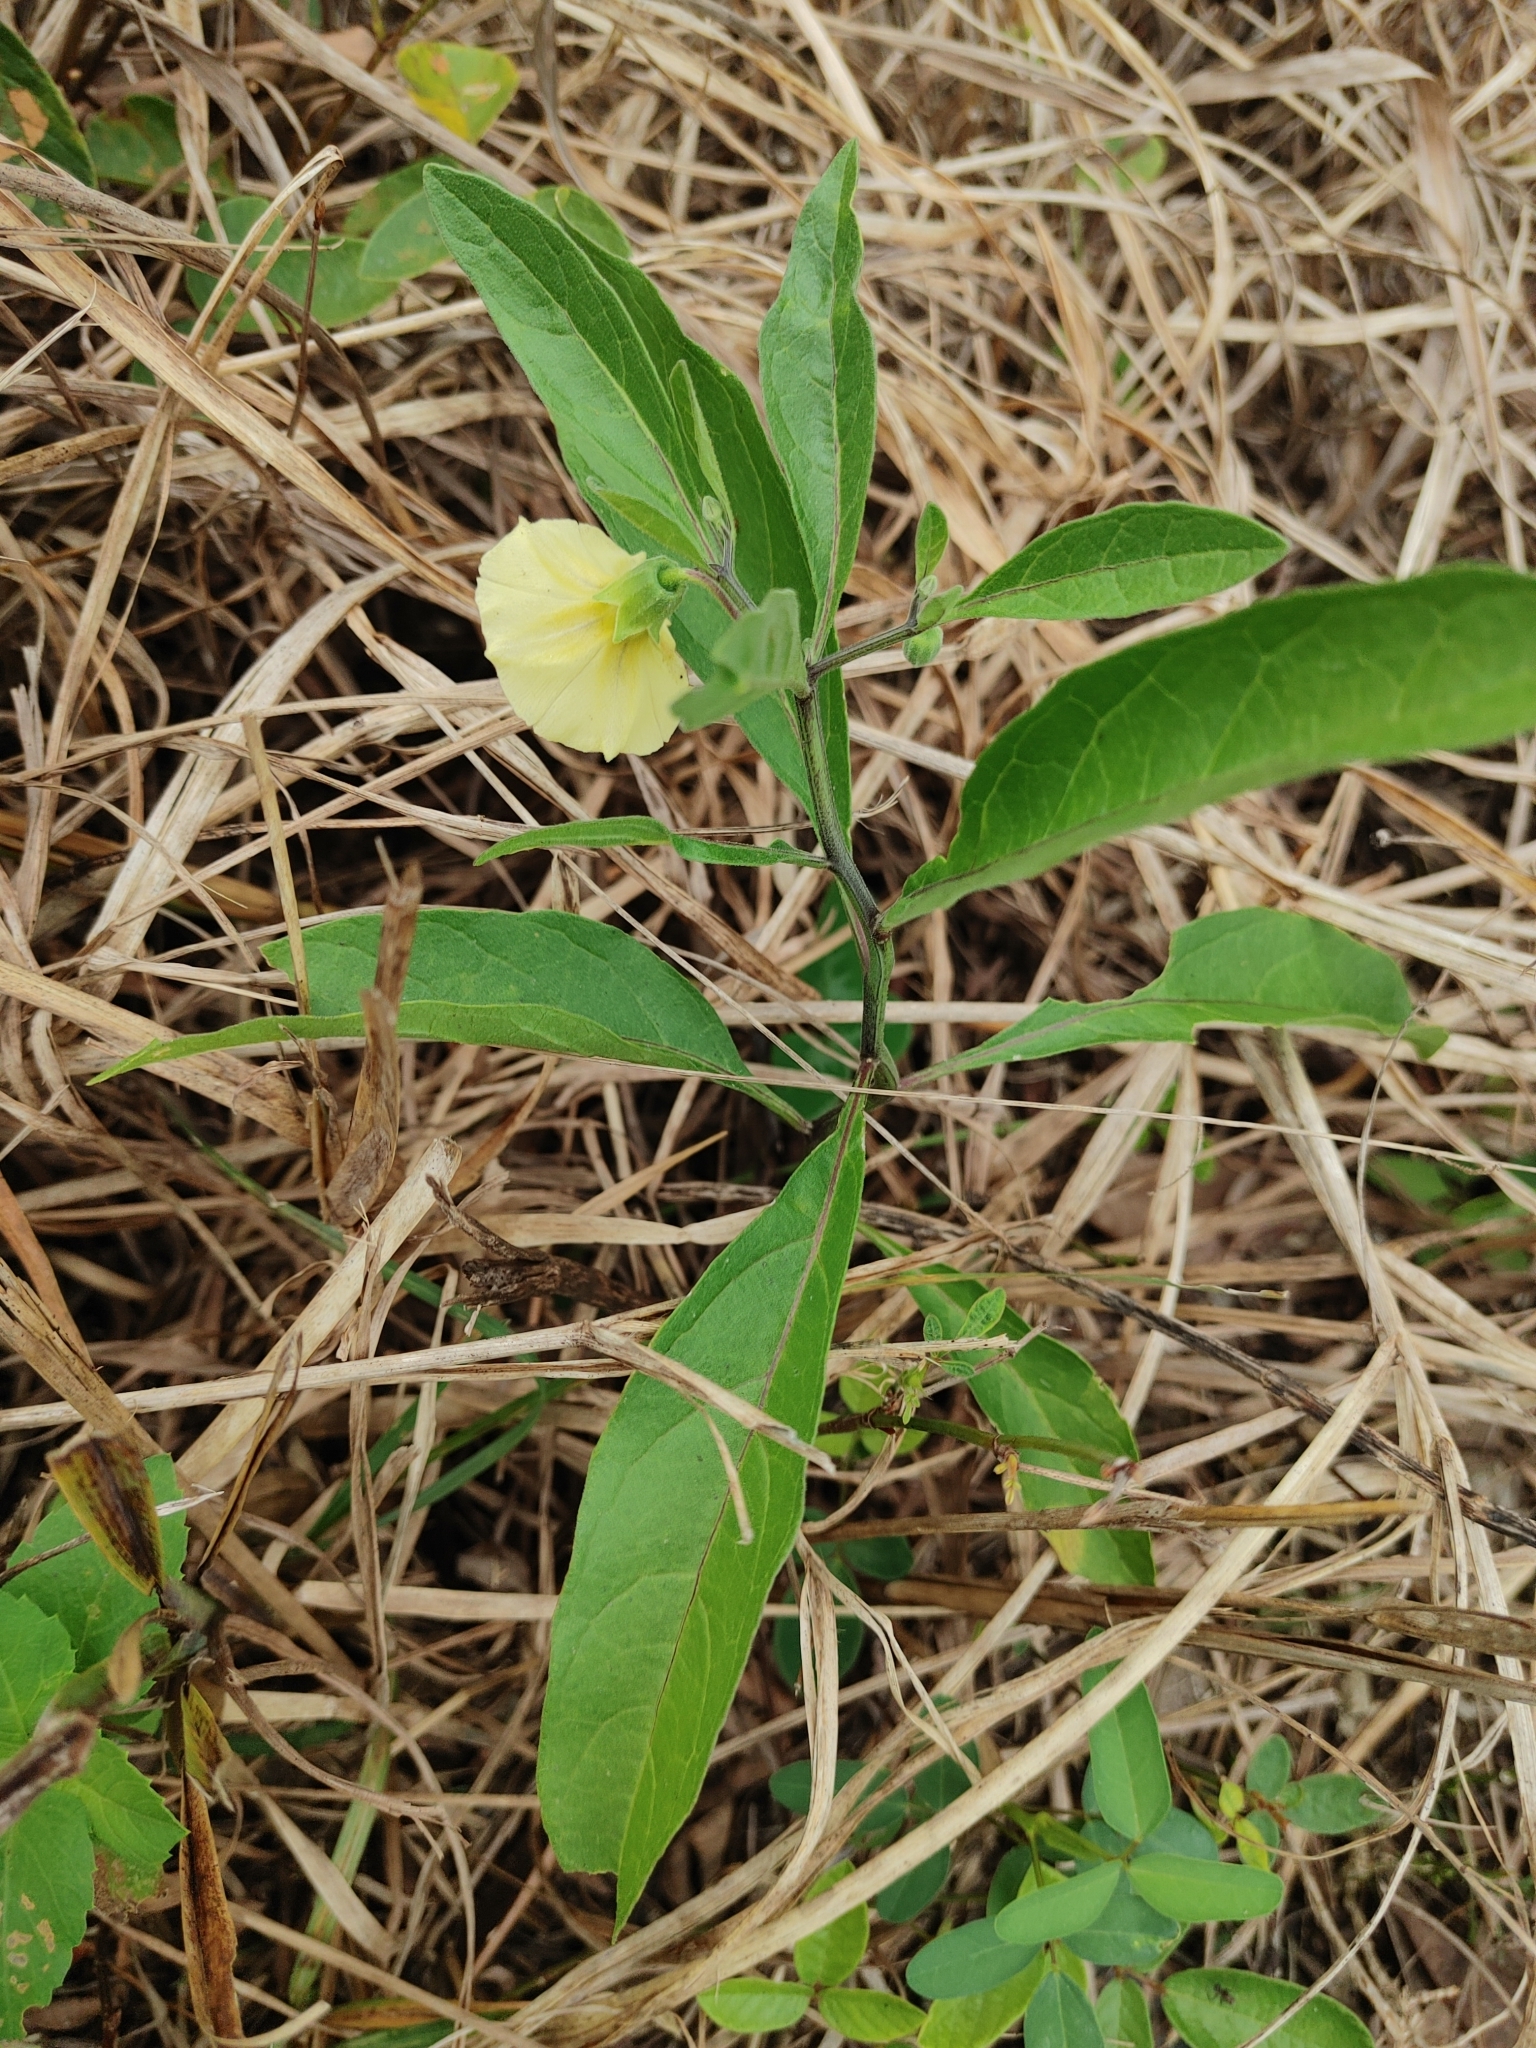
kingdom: Plantae
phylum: Tracheophyta
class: Magnoliopsida
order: Solanales
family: Solanaceae
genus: Physalis
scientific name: Physalis walteri
